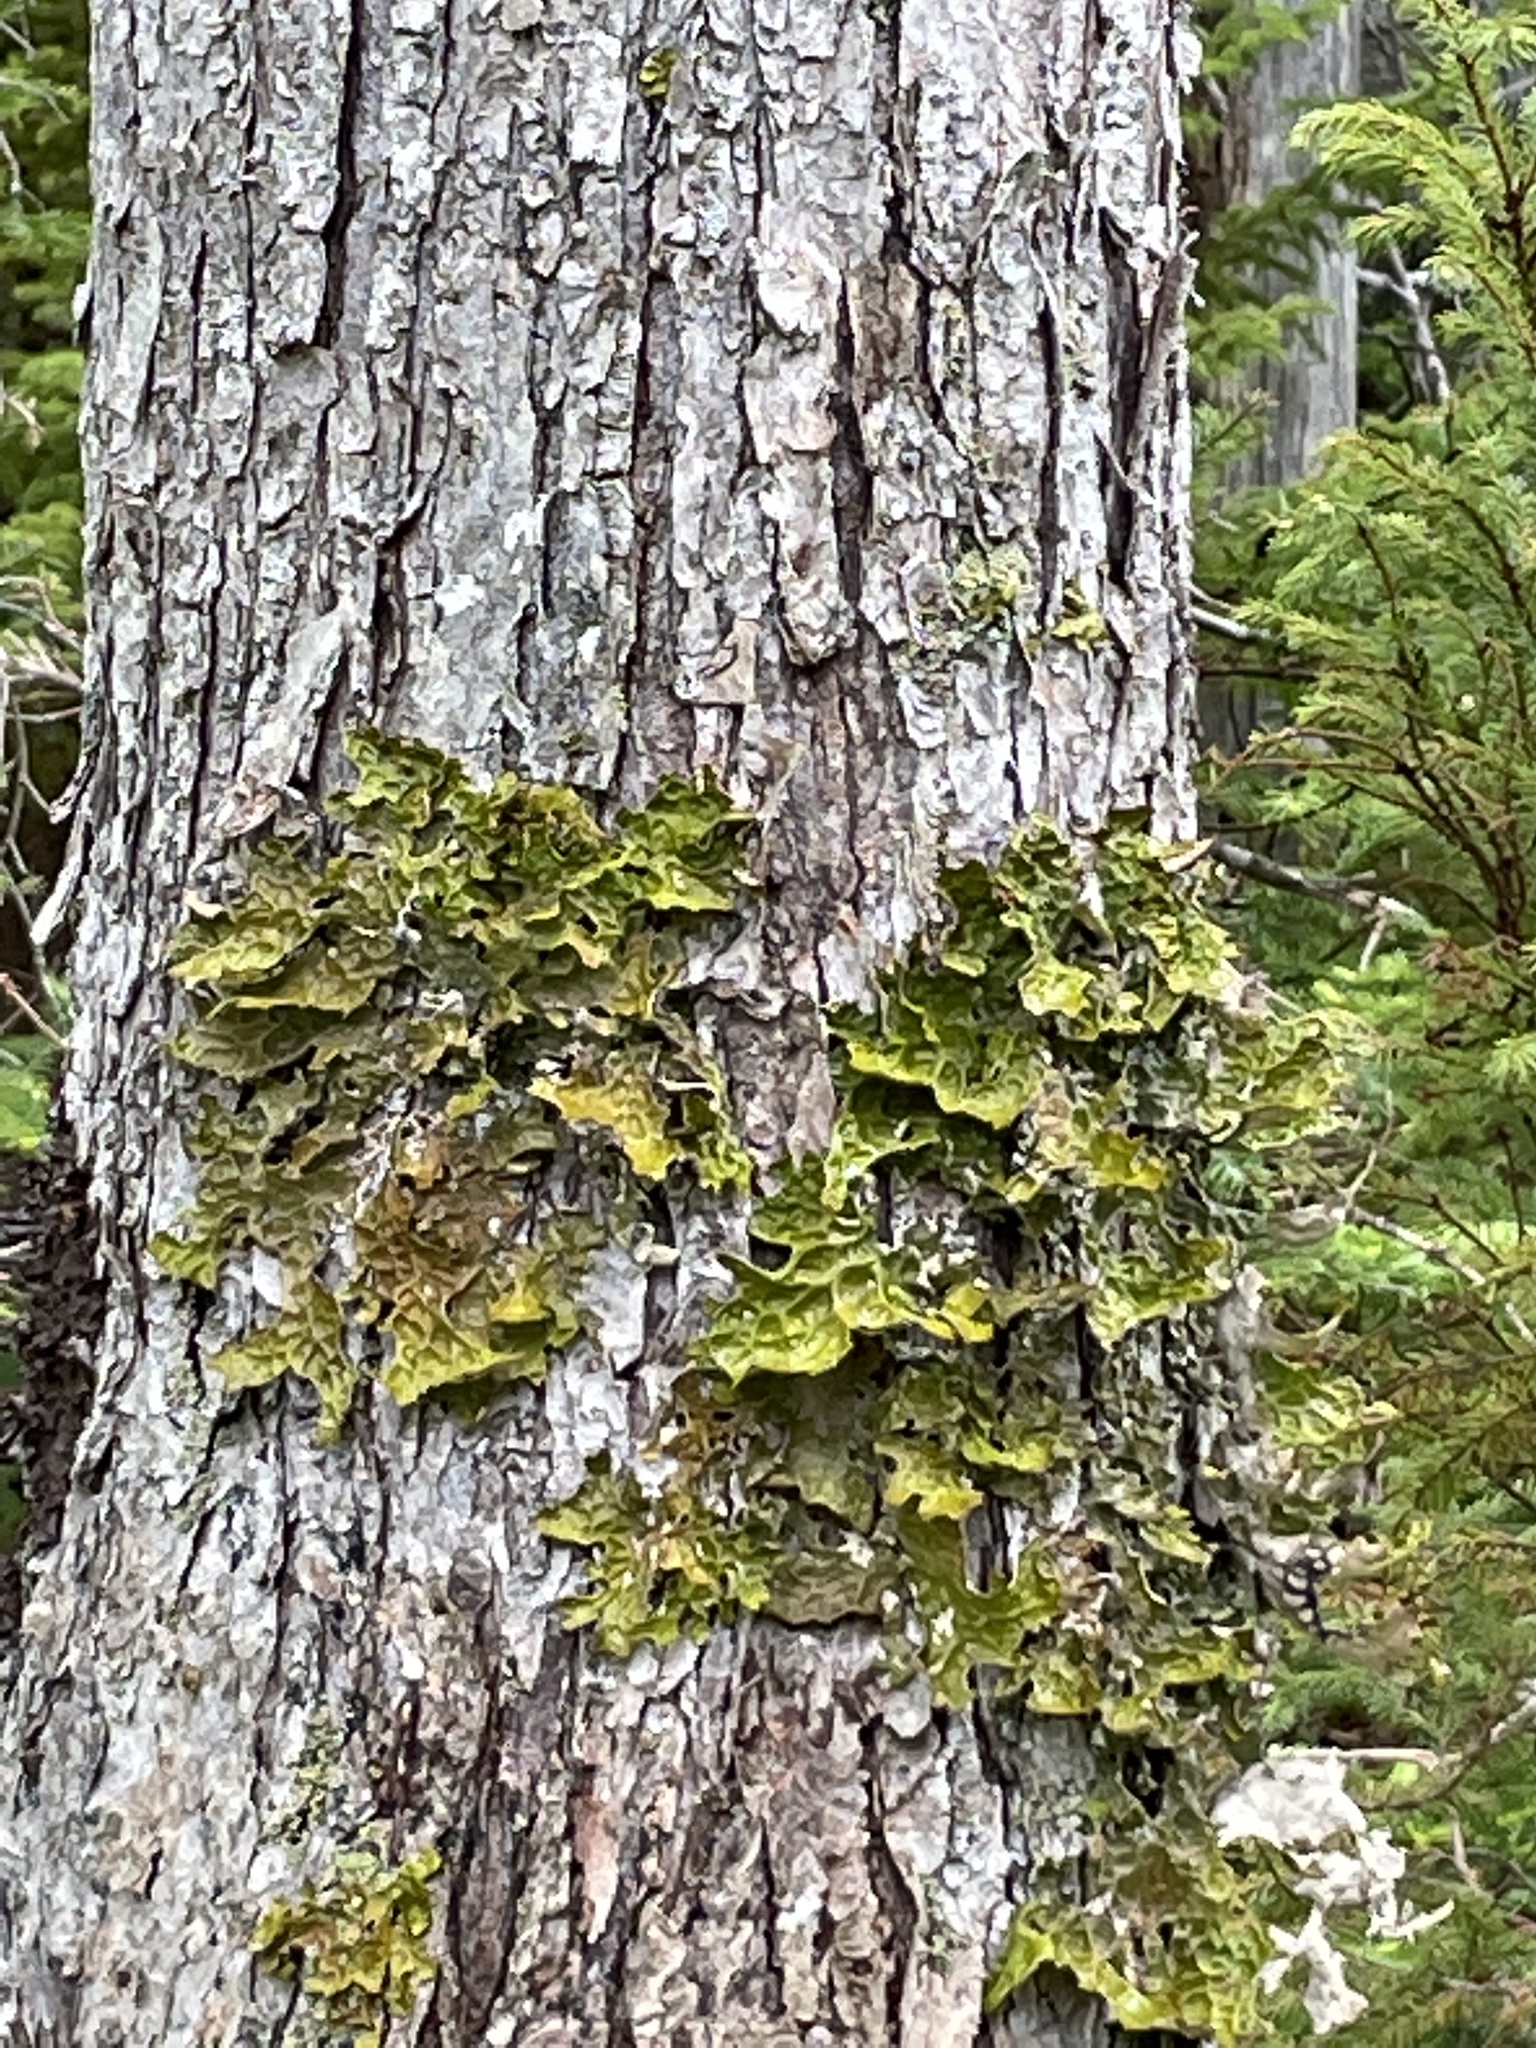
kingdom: Fungi
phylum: Ascomycota
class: Lecanoromycetes
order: Peltigerales
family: Lobariaceae
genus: Lobaria
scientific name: Lobaria pulmonaria
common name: Lungwort
